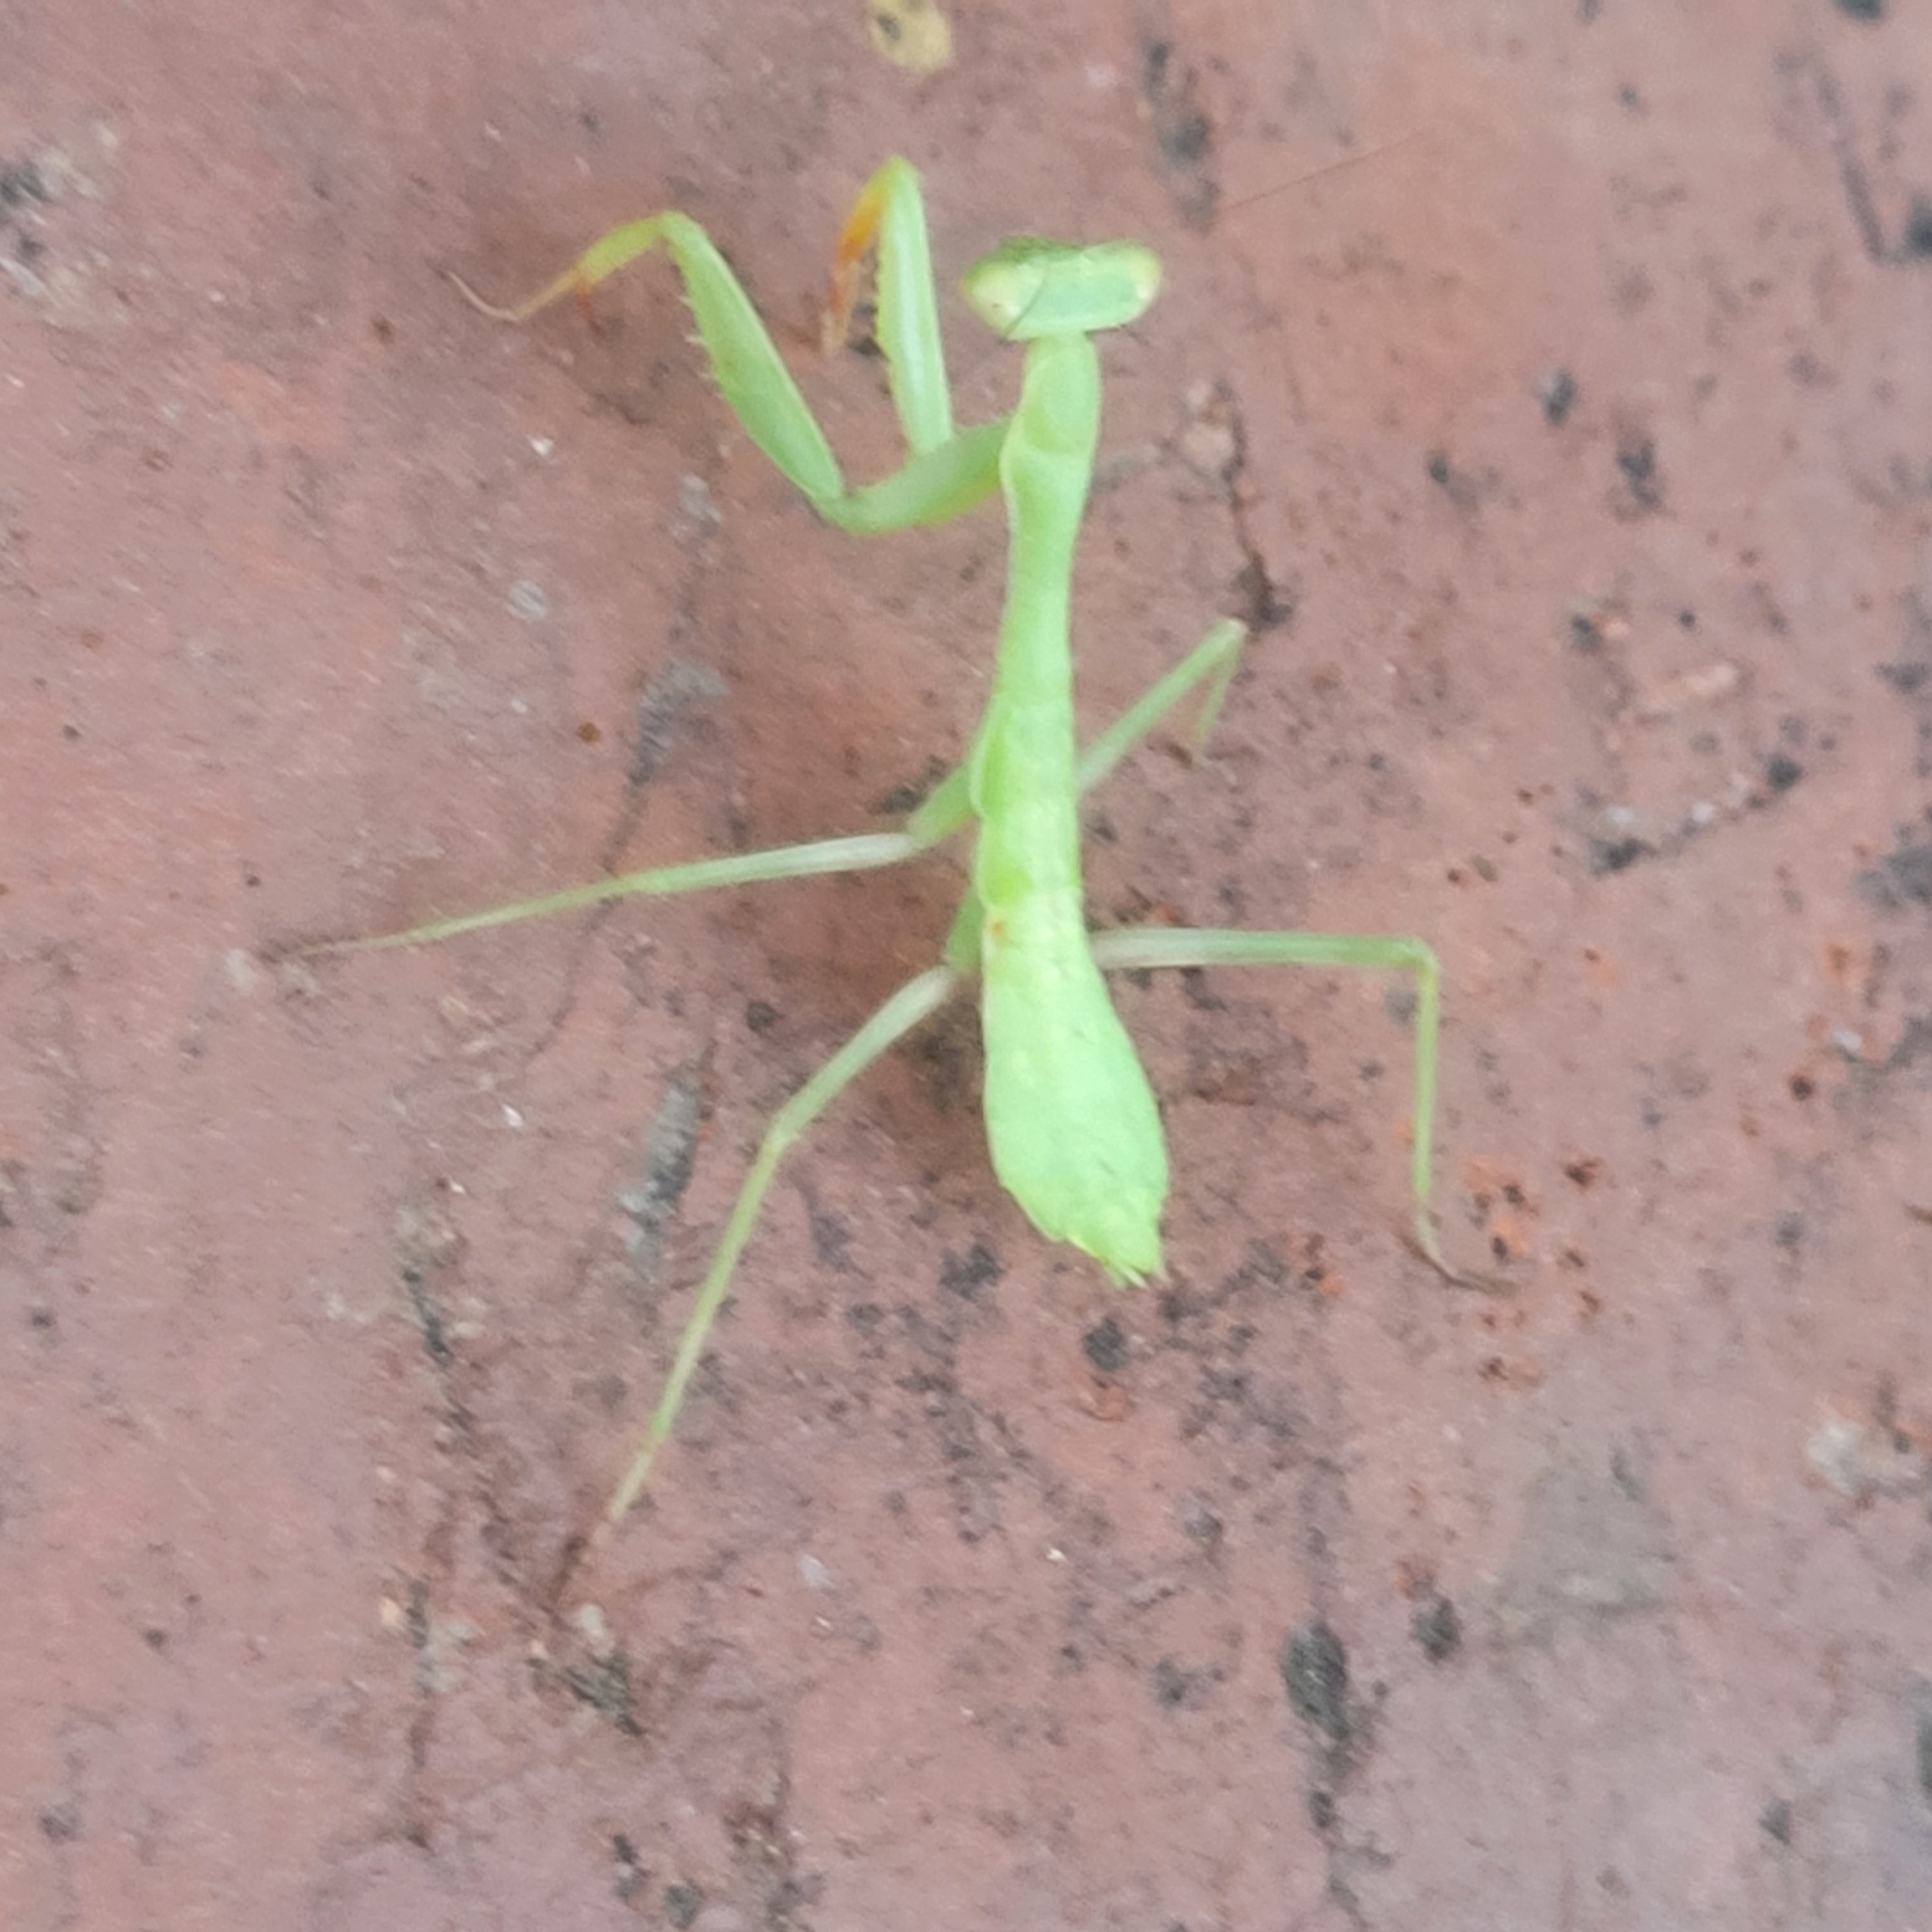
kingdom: Animalia
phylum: Arthropoda
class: Insecta
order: Mantodea
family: Mantidae
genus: Stagmomantis
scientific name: Stagmomantis californica
